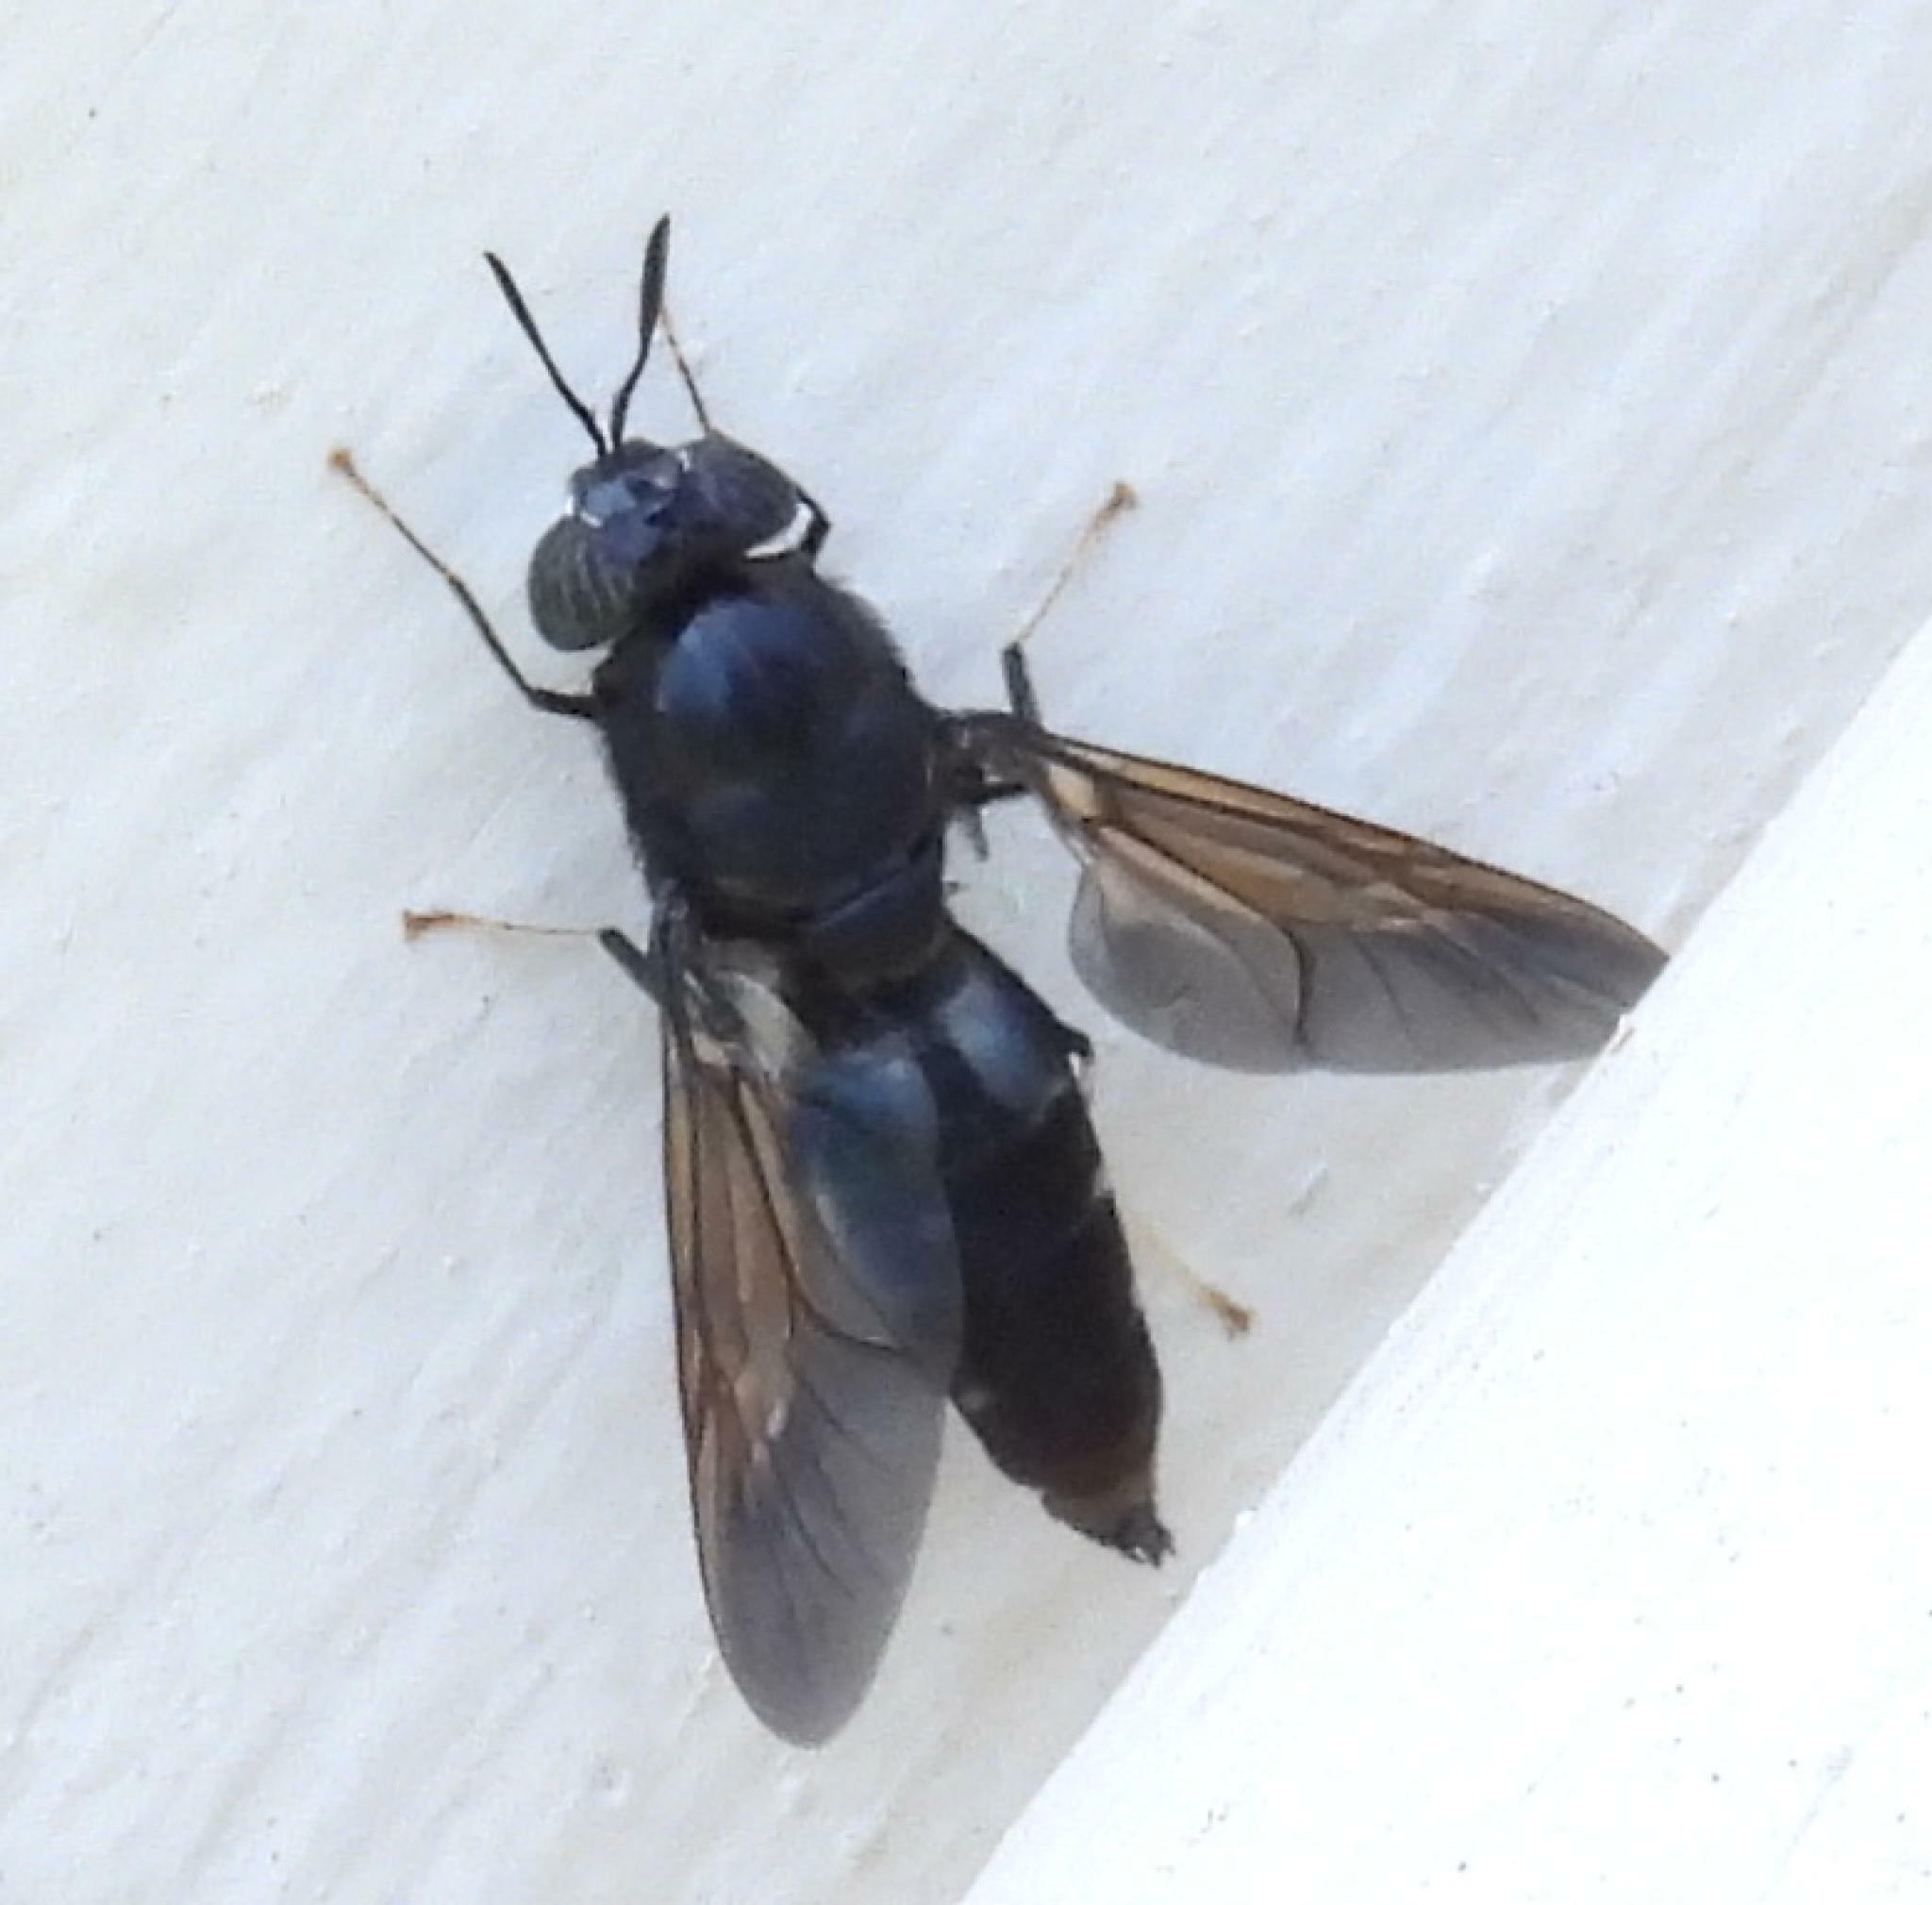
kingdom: Animalia
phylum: Arthropoda
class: Insecta
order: Diptera
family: Stratiomyidae
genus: Hermetia
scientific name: Hermetia illucens
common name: Black soldier fly
